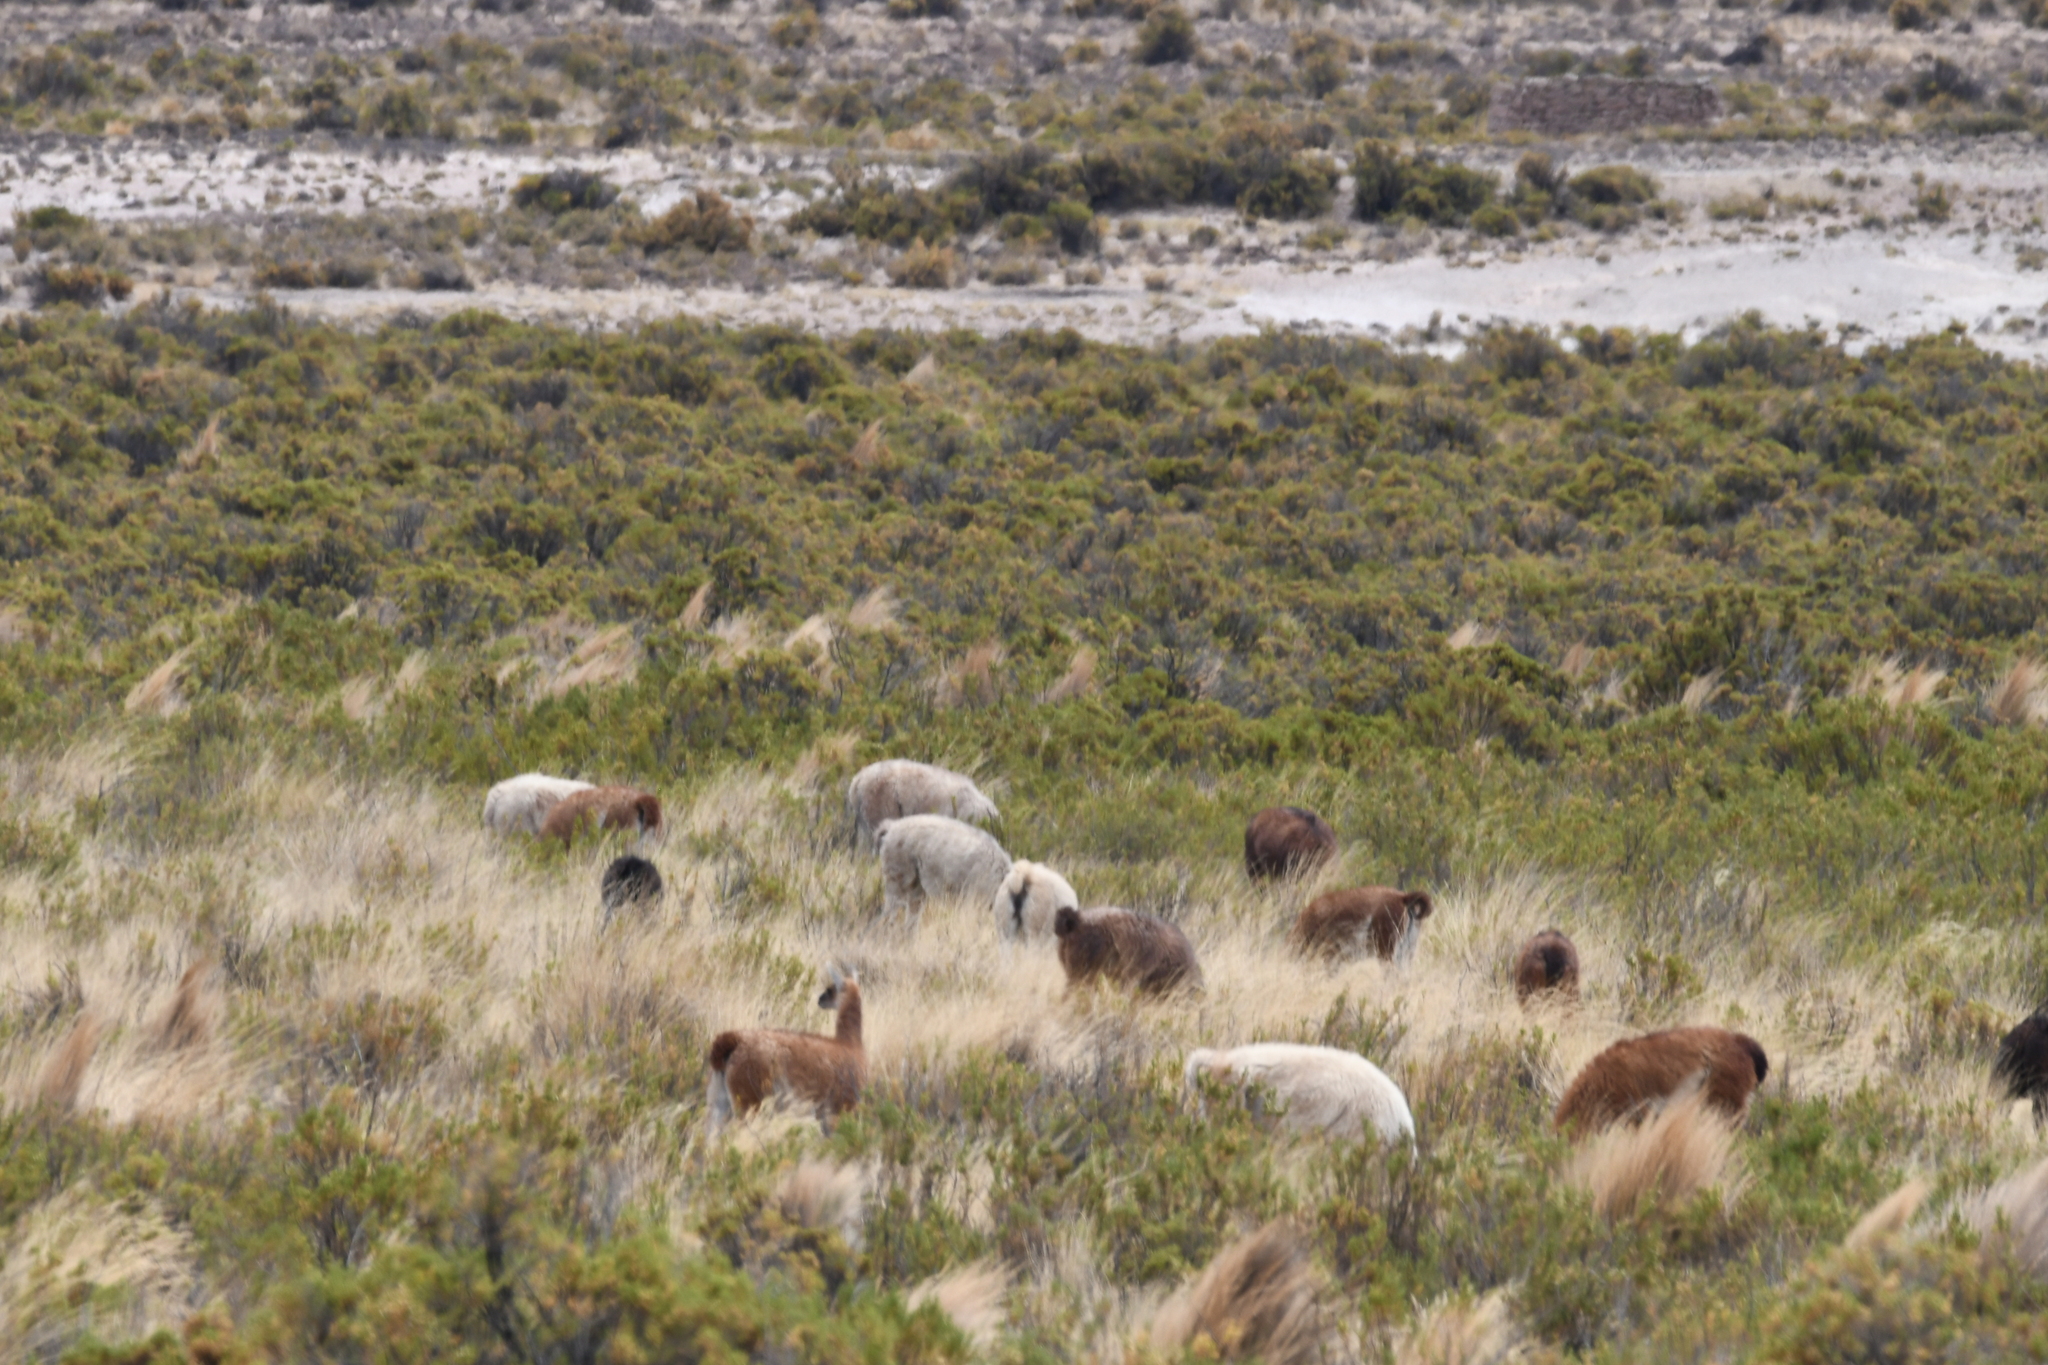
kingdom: Animalia
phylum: Chordata
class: Mammalia
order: Artiodactyla
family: Camelidae
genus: Lama
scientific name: Lama glama
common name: Llama
